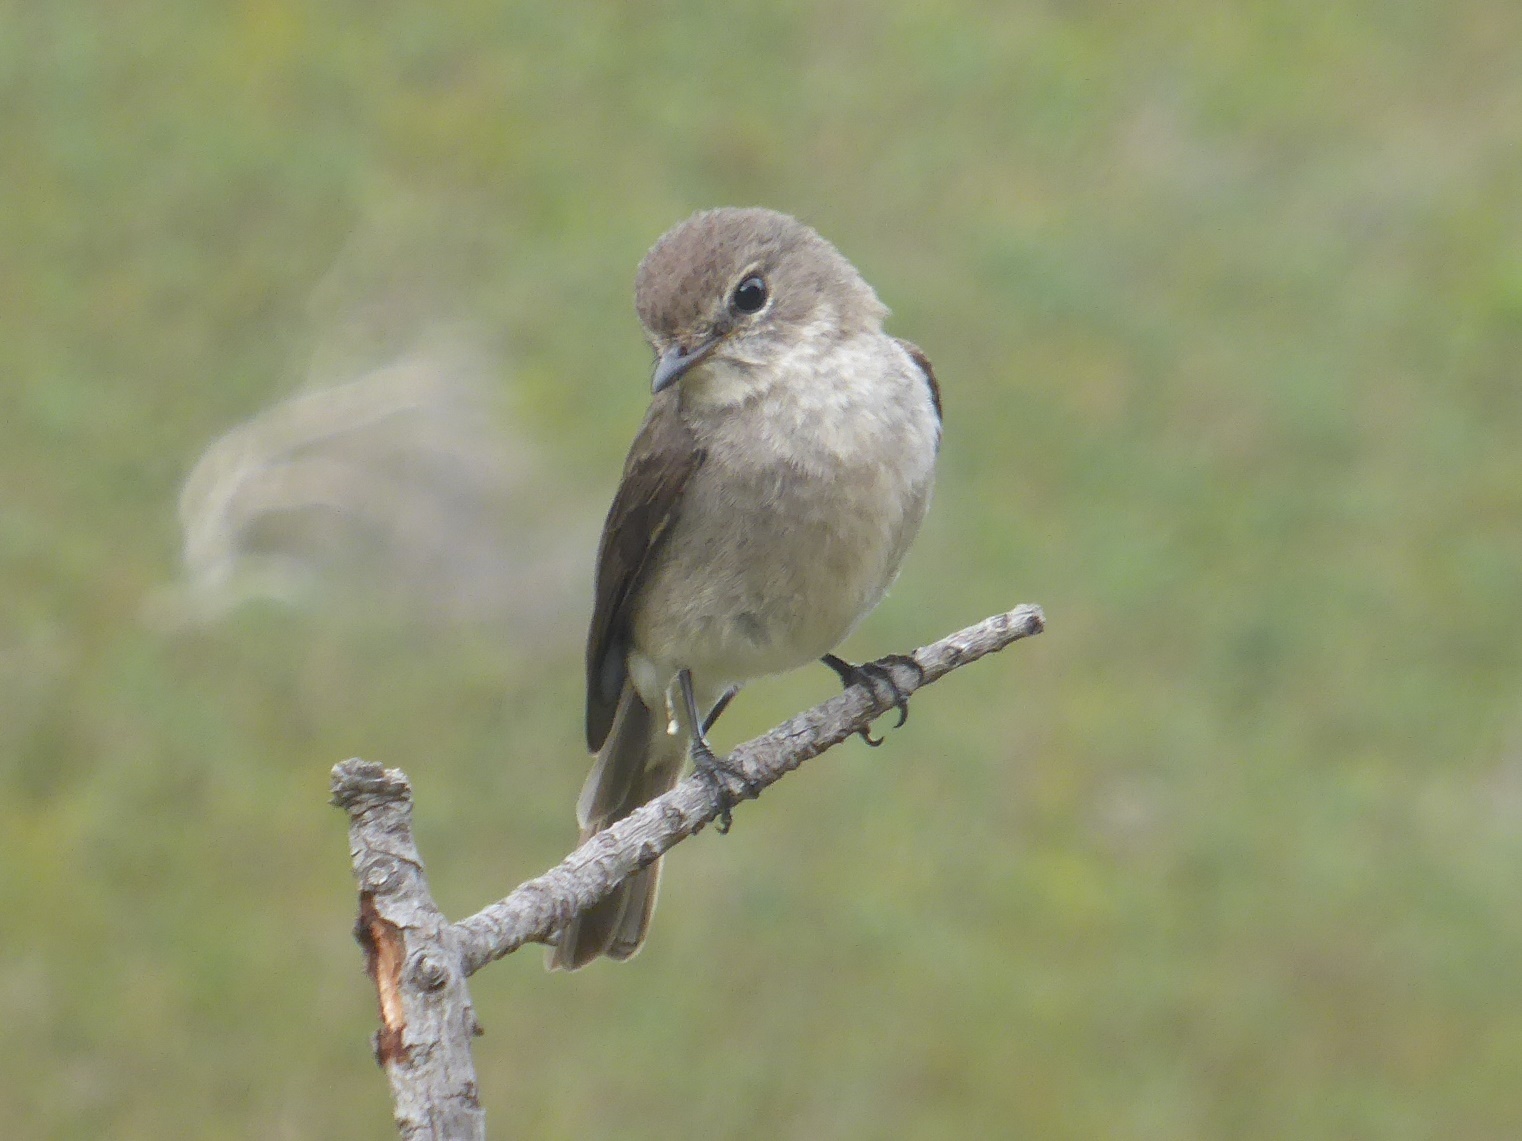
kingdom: Animalia
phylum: Chordata
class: Aves
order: Passeriformes
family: Muscicapidae
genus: Muscicapa
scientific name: Muscicapa adusta
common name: African dusky flycatcher
